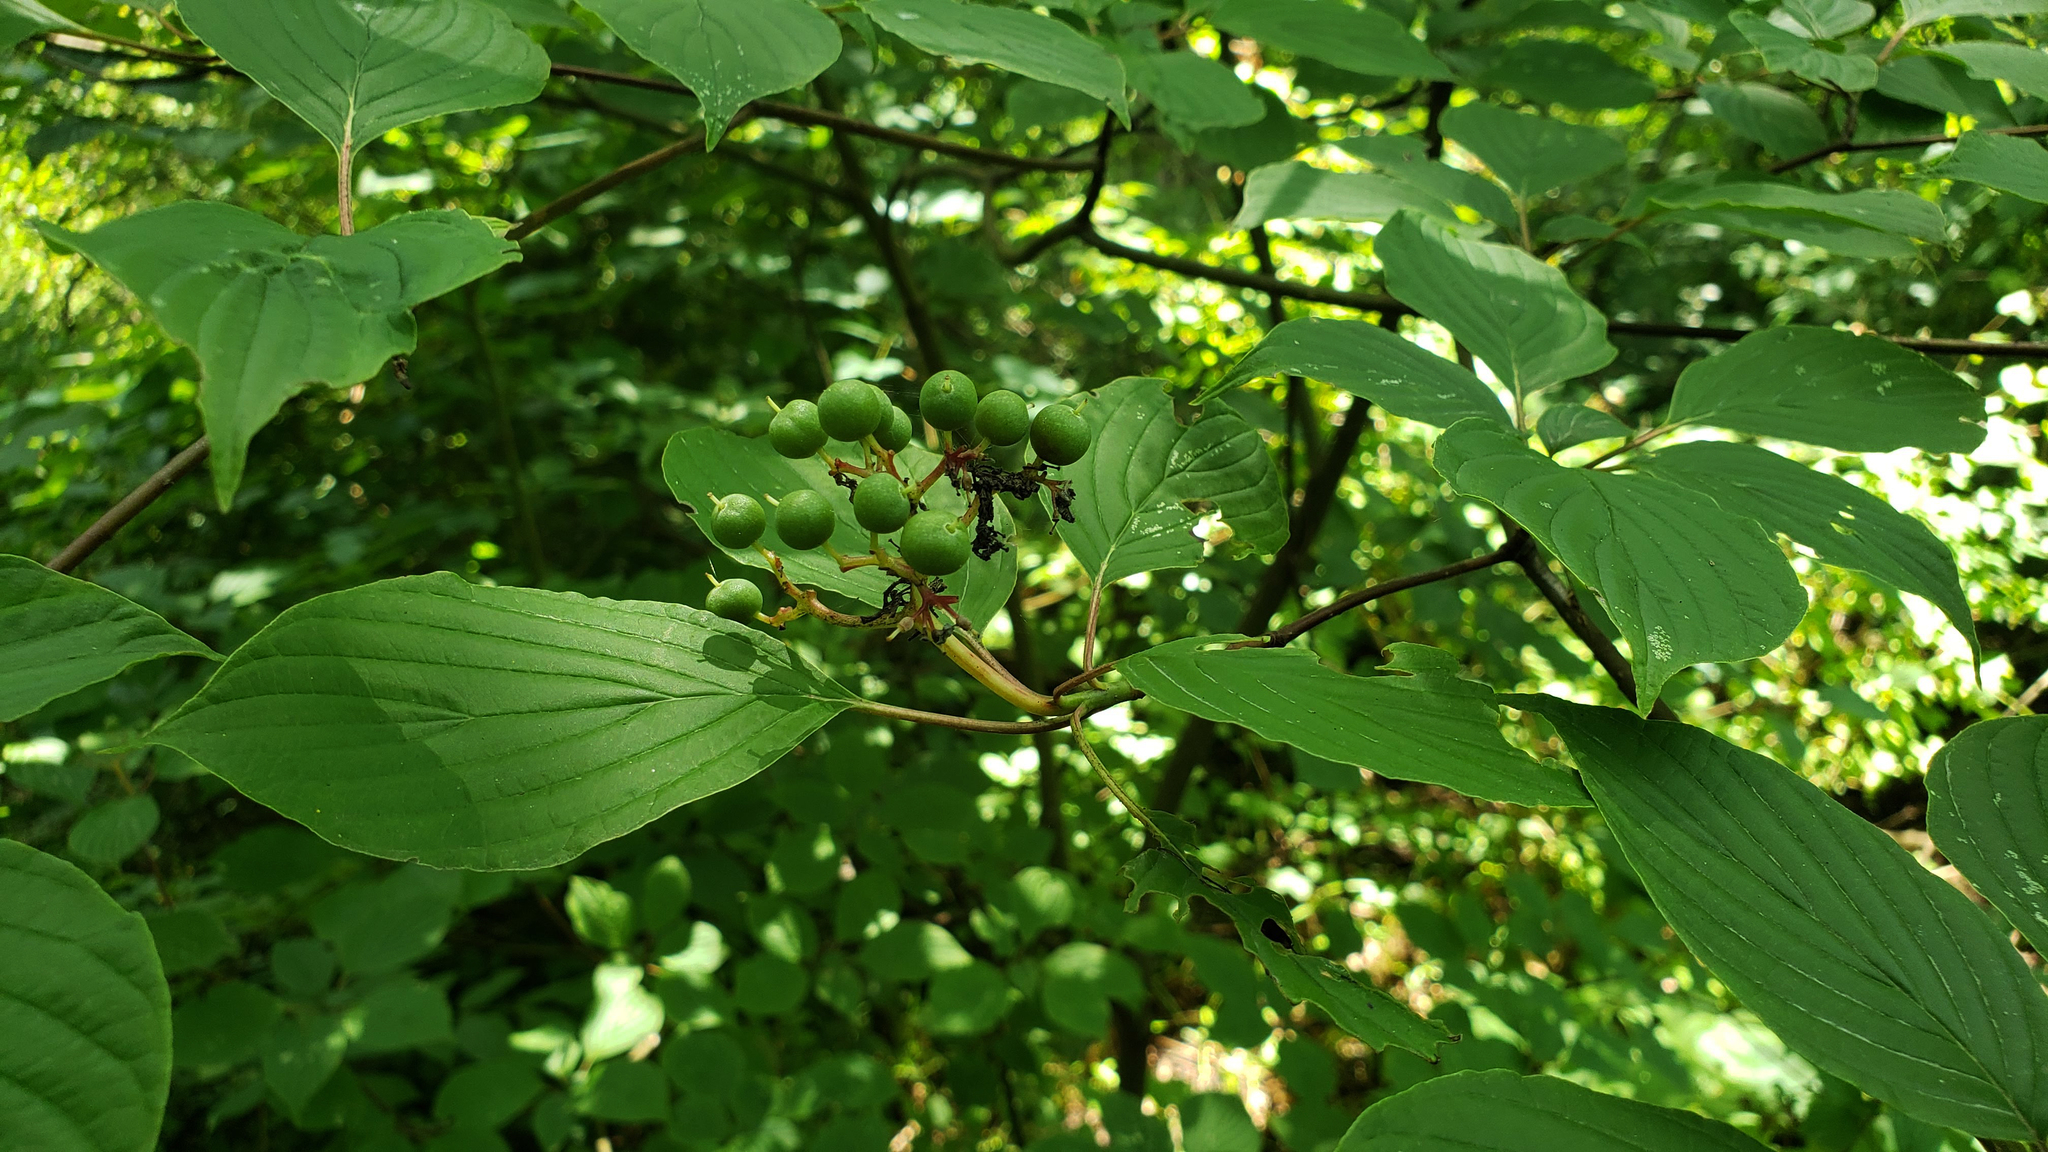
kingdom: Plantae
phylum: Tracheophyta
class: Magnoliopsida
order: Cornales
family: Cornaceae
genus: Cornus
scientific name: Cornus alternifolia
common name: Pagoda dogwood
